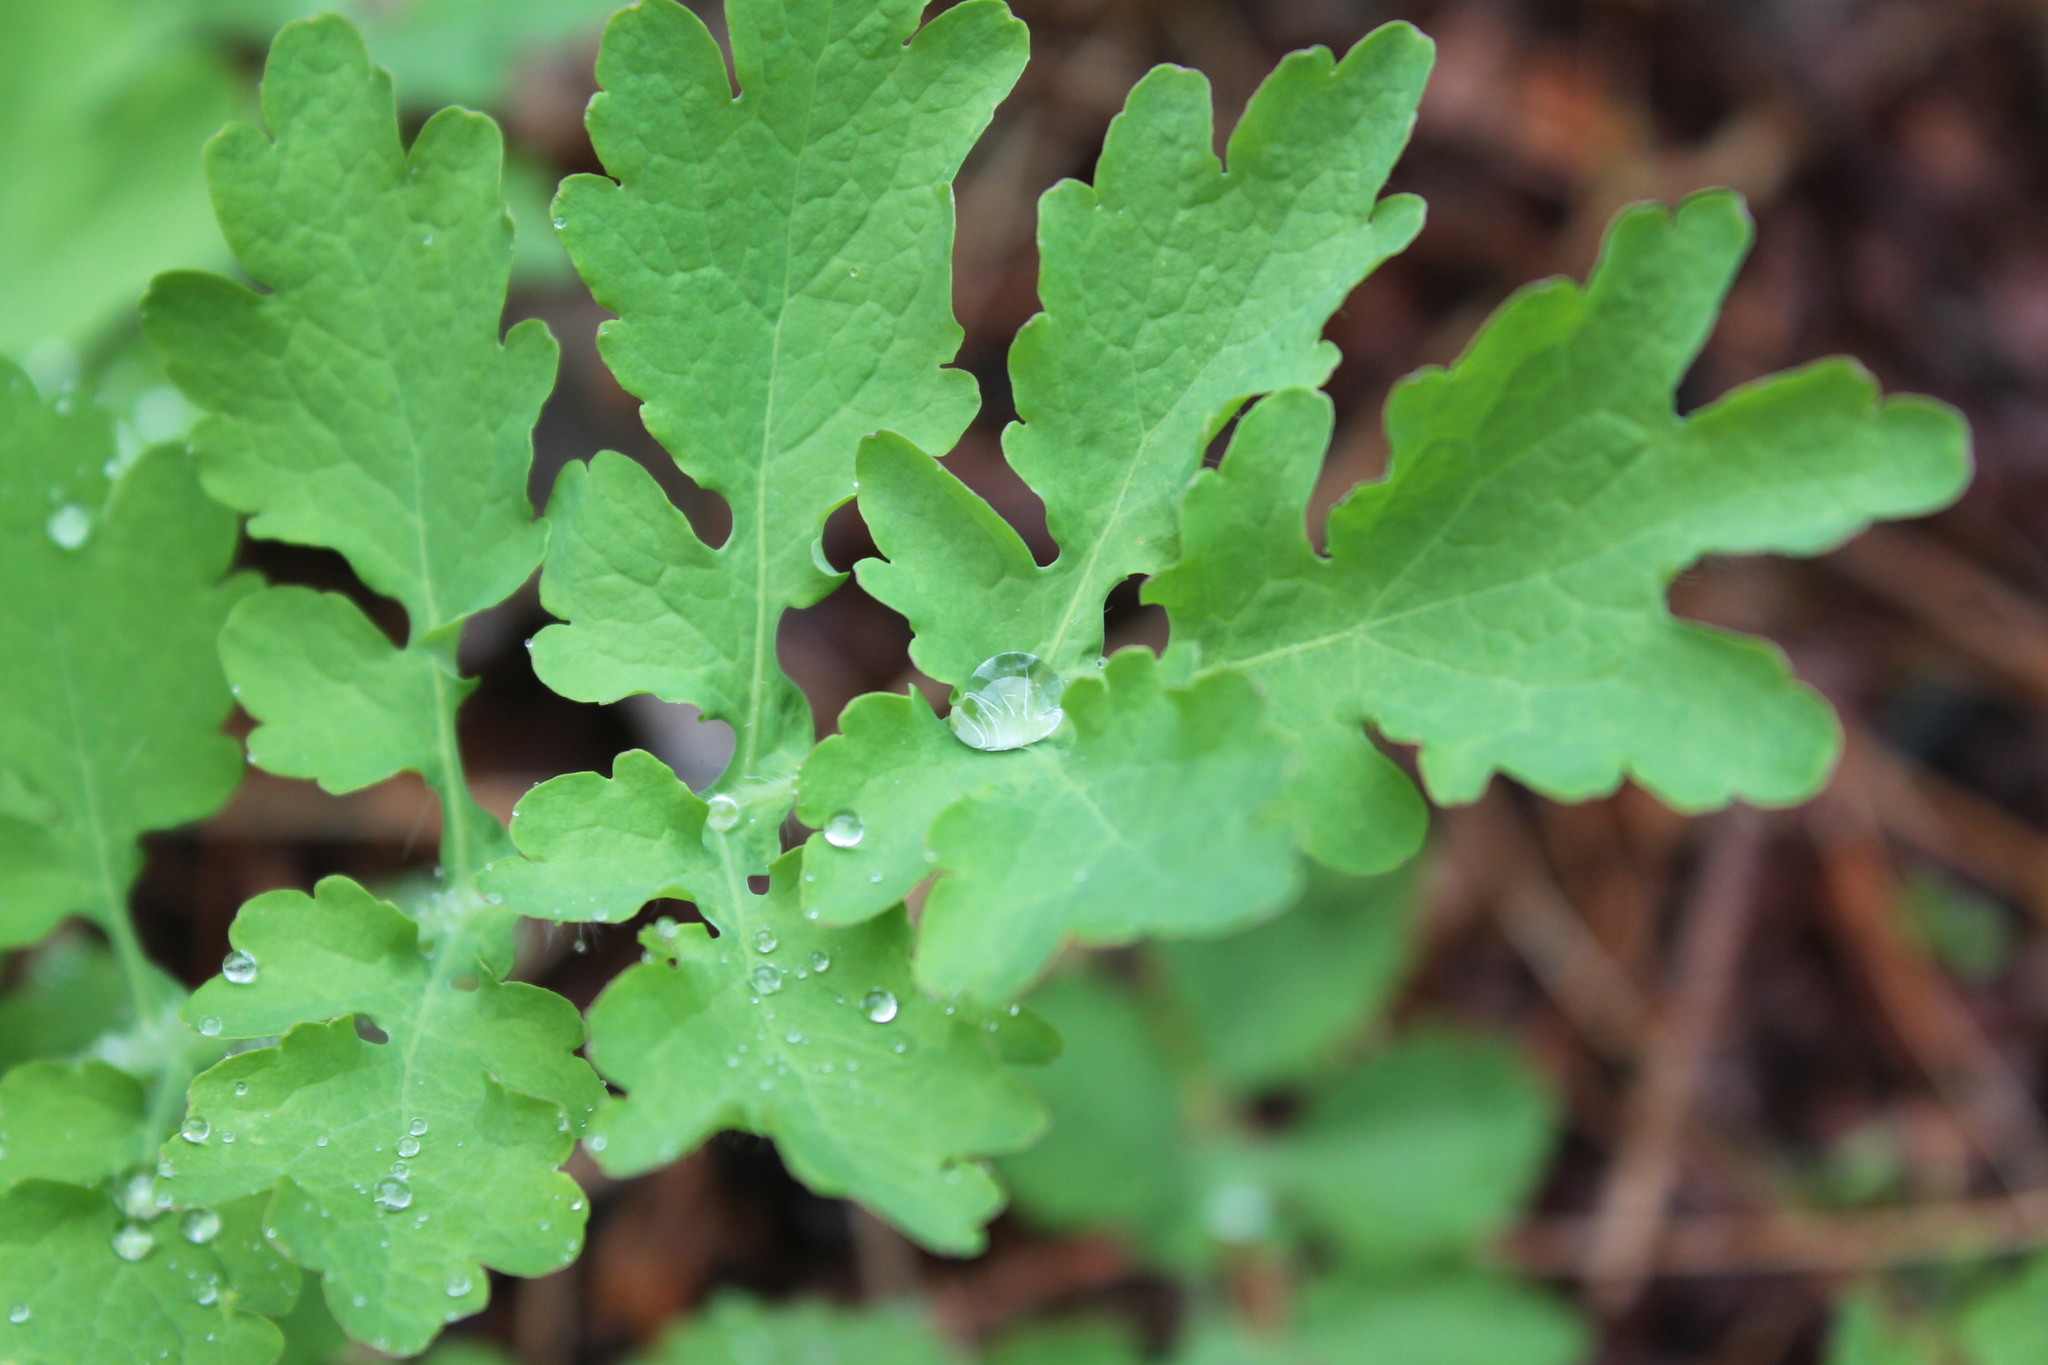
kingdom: Plantae
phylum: Tracheophyta
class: Magnoliopsida
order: Ranunculales
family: Papaveraceae
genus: Chelidonium
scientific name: Chelidonium majus
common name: Greater celandine
